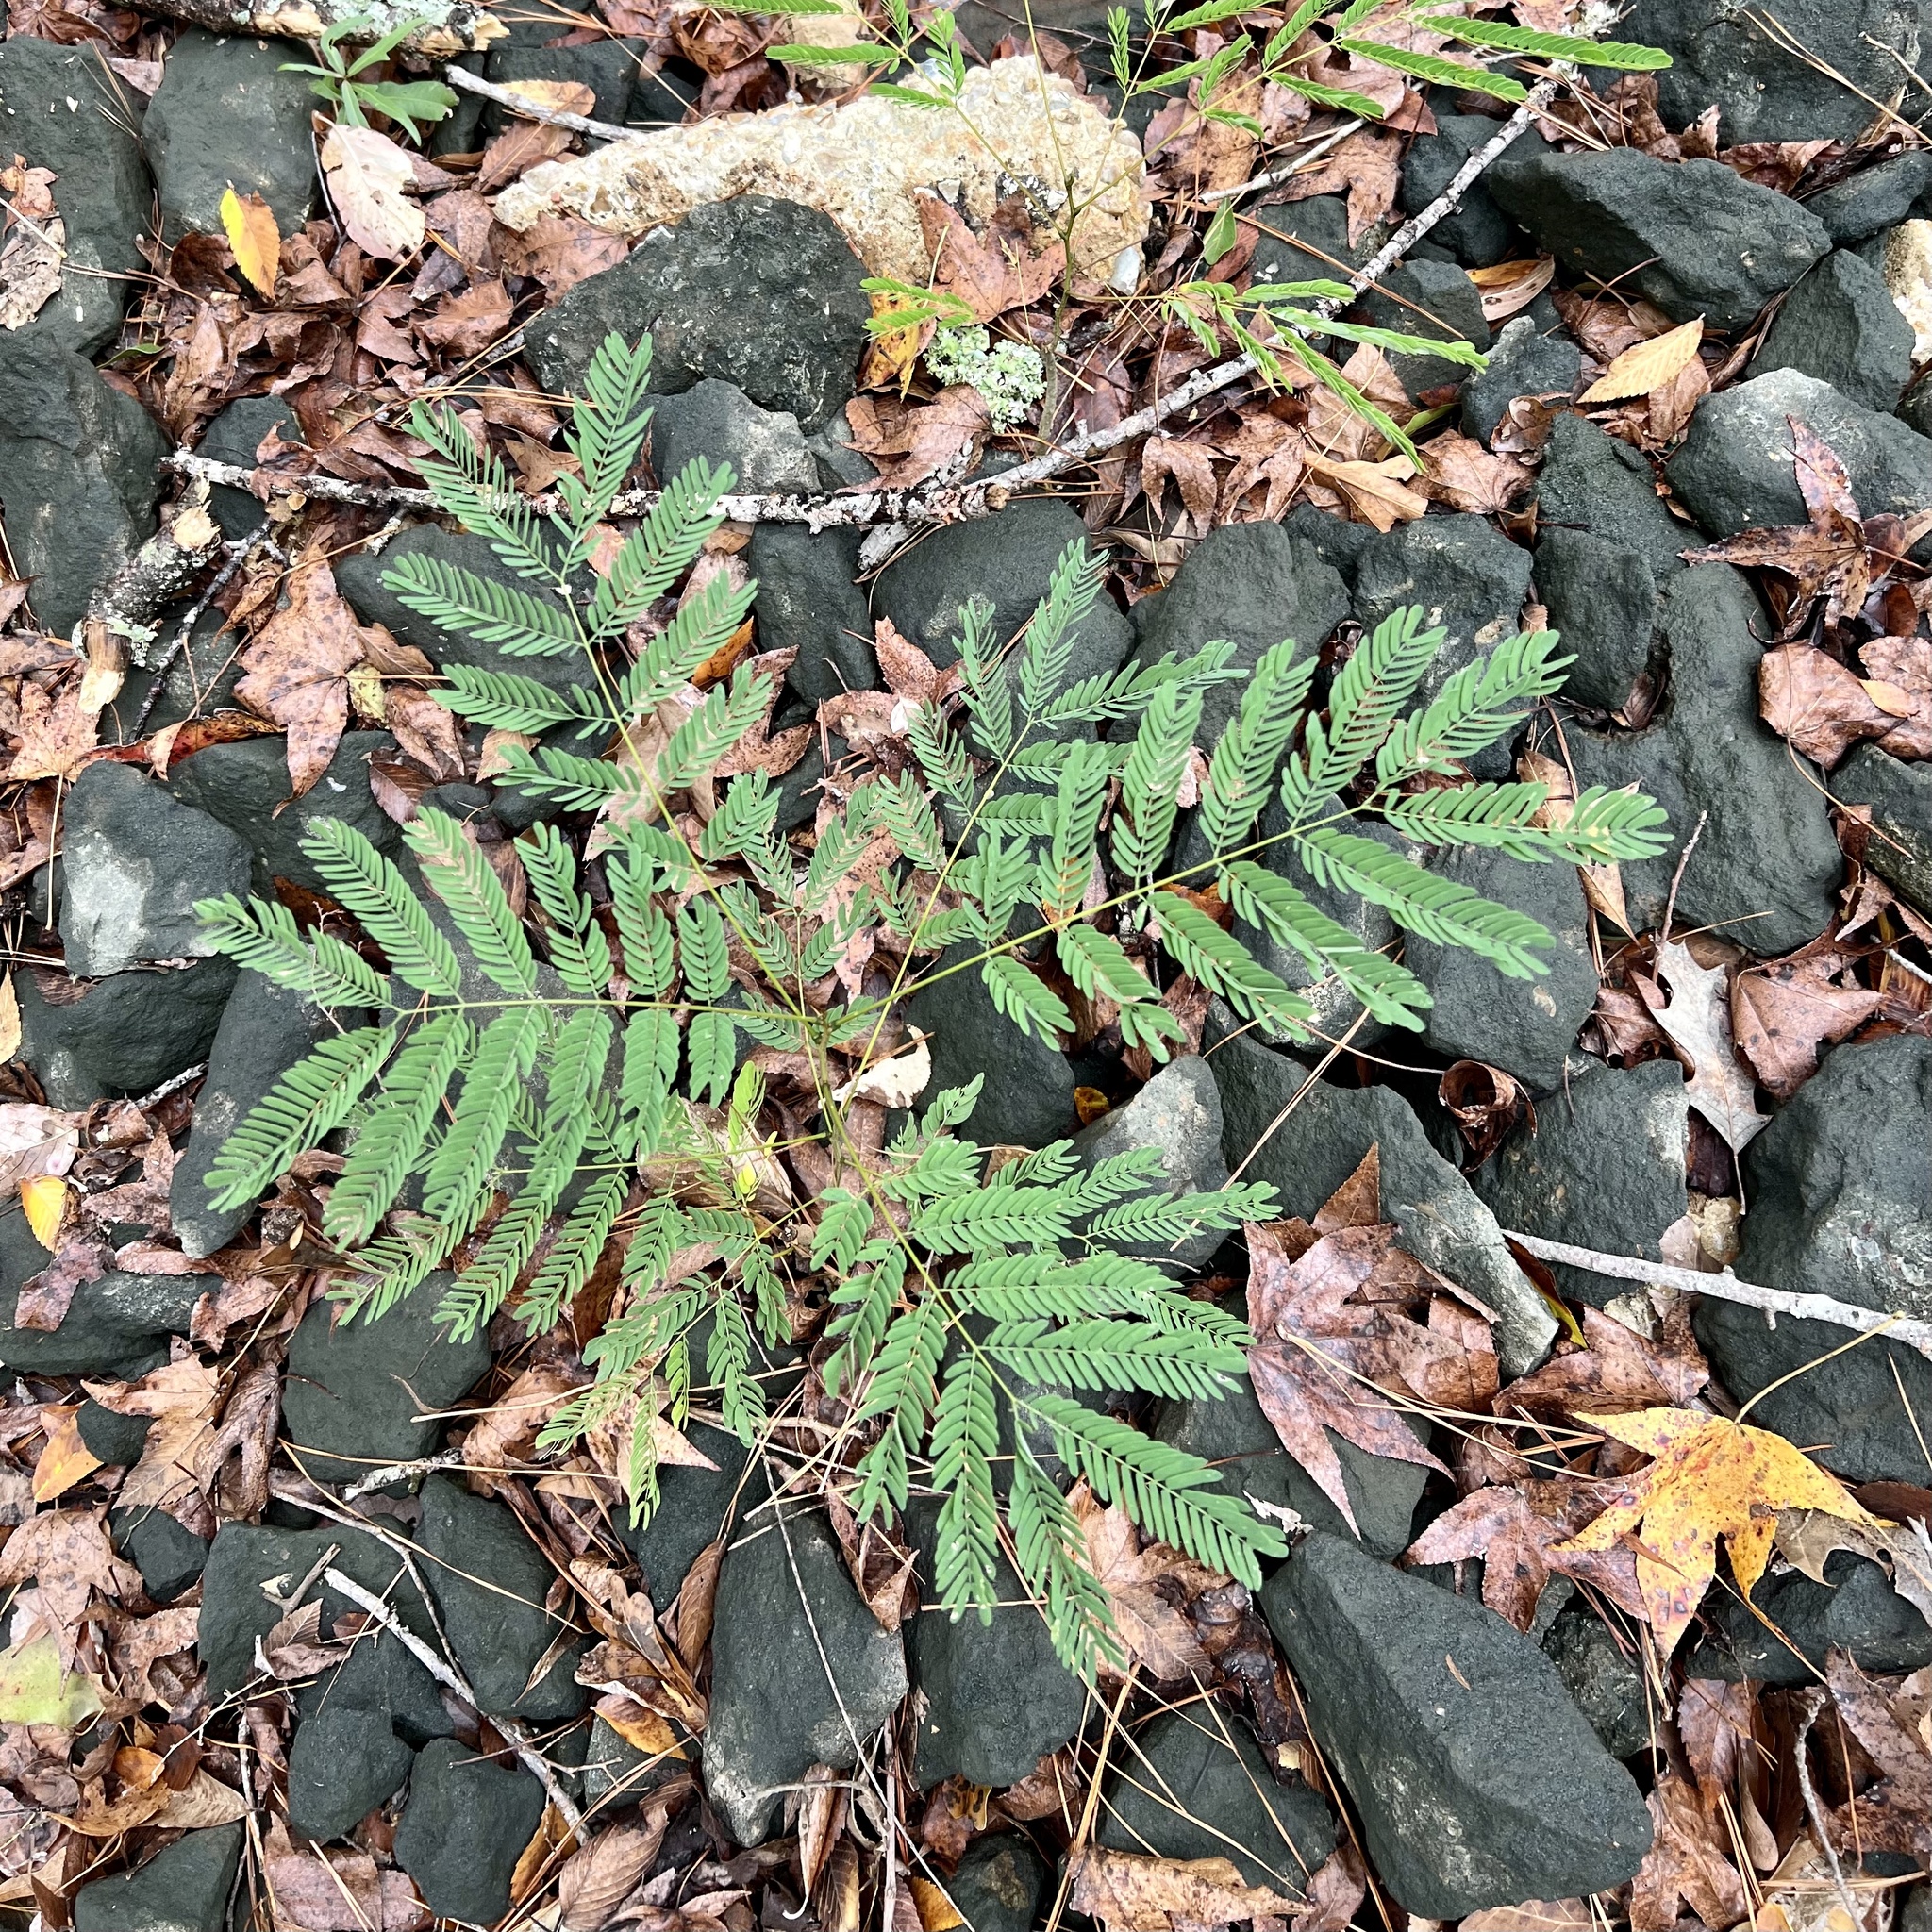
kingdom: Plantae
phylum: Tracheophyta
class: Magnoliopsida
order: Fabales
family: Fabaceae
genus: Albizia
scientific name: Albizia julibrissin
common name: Silktree
